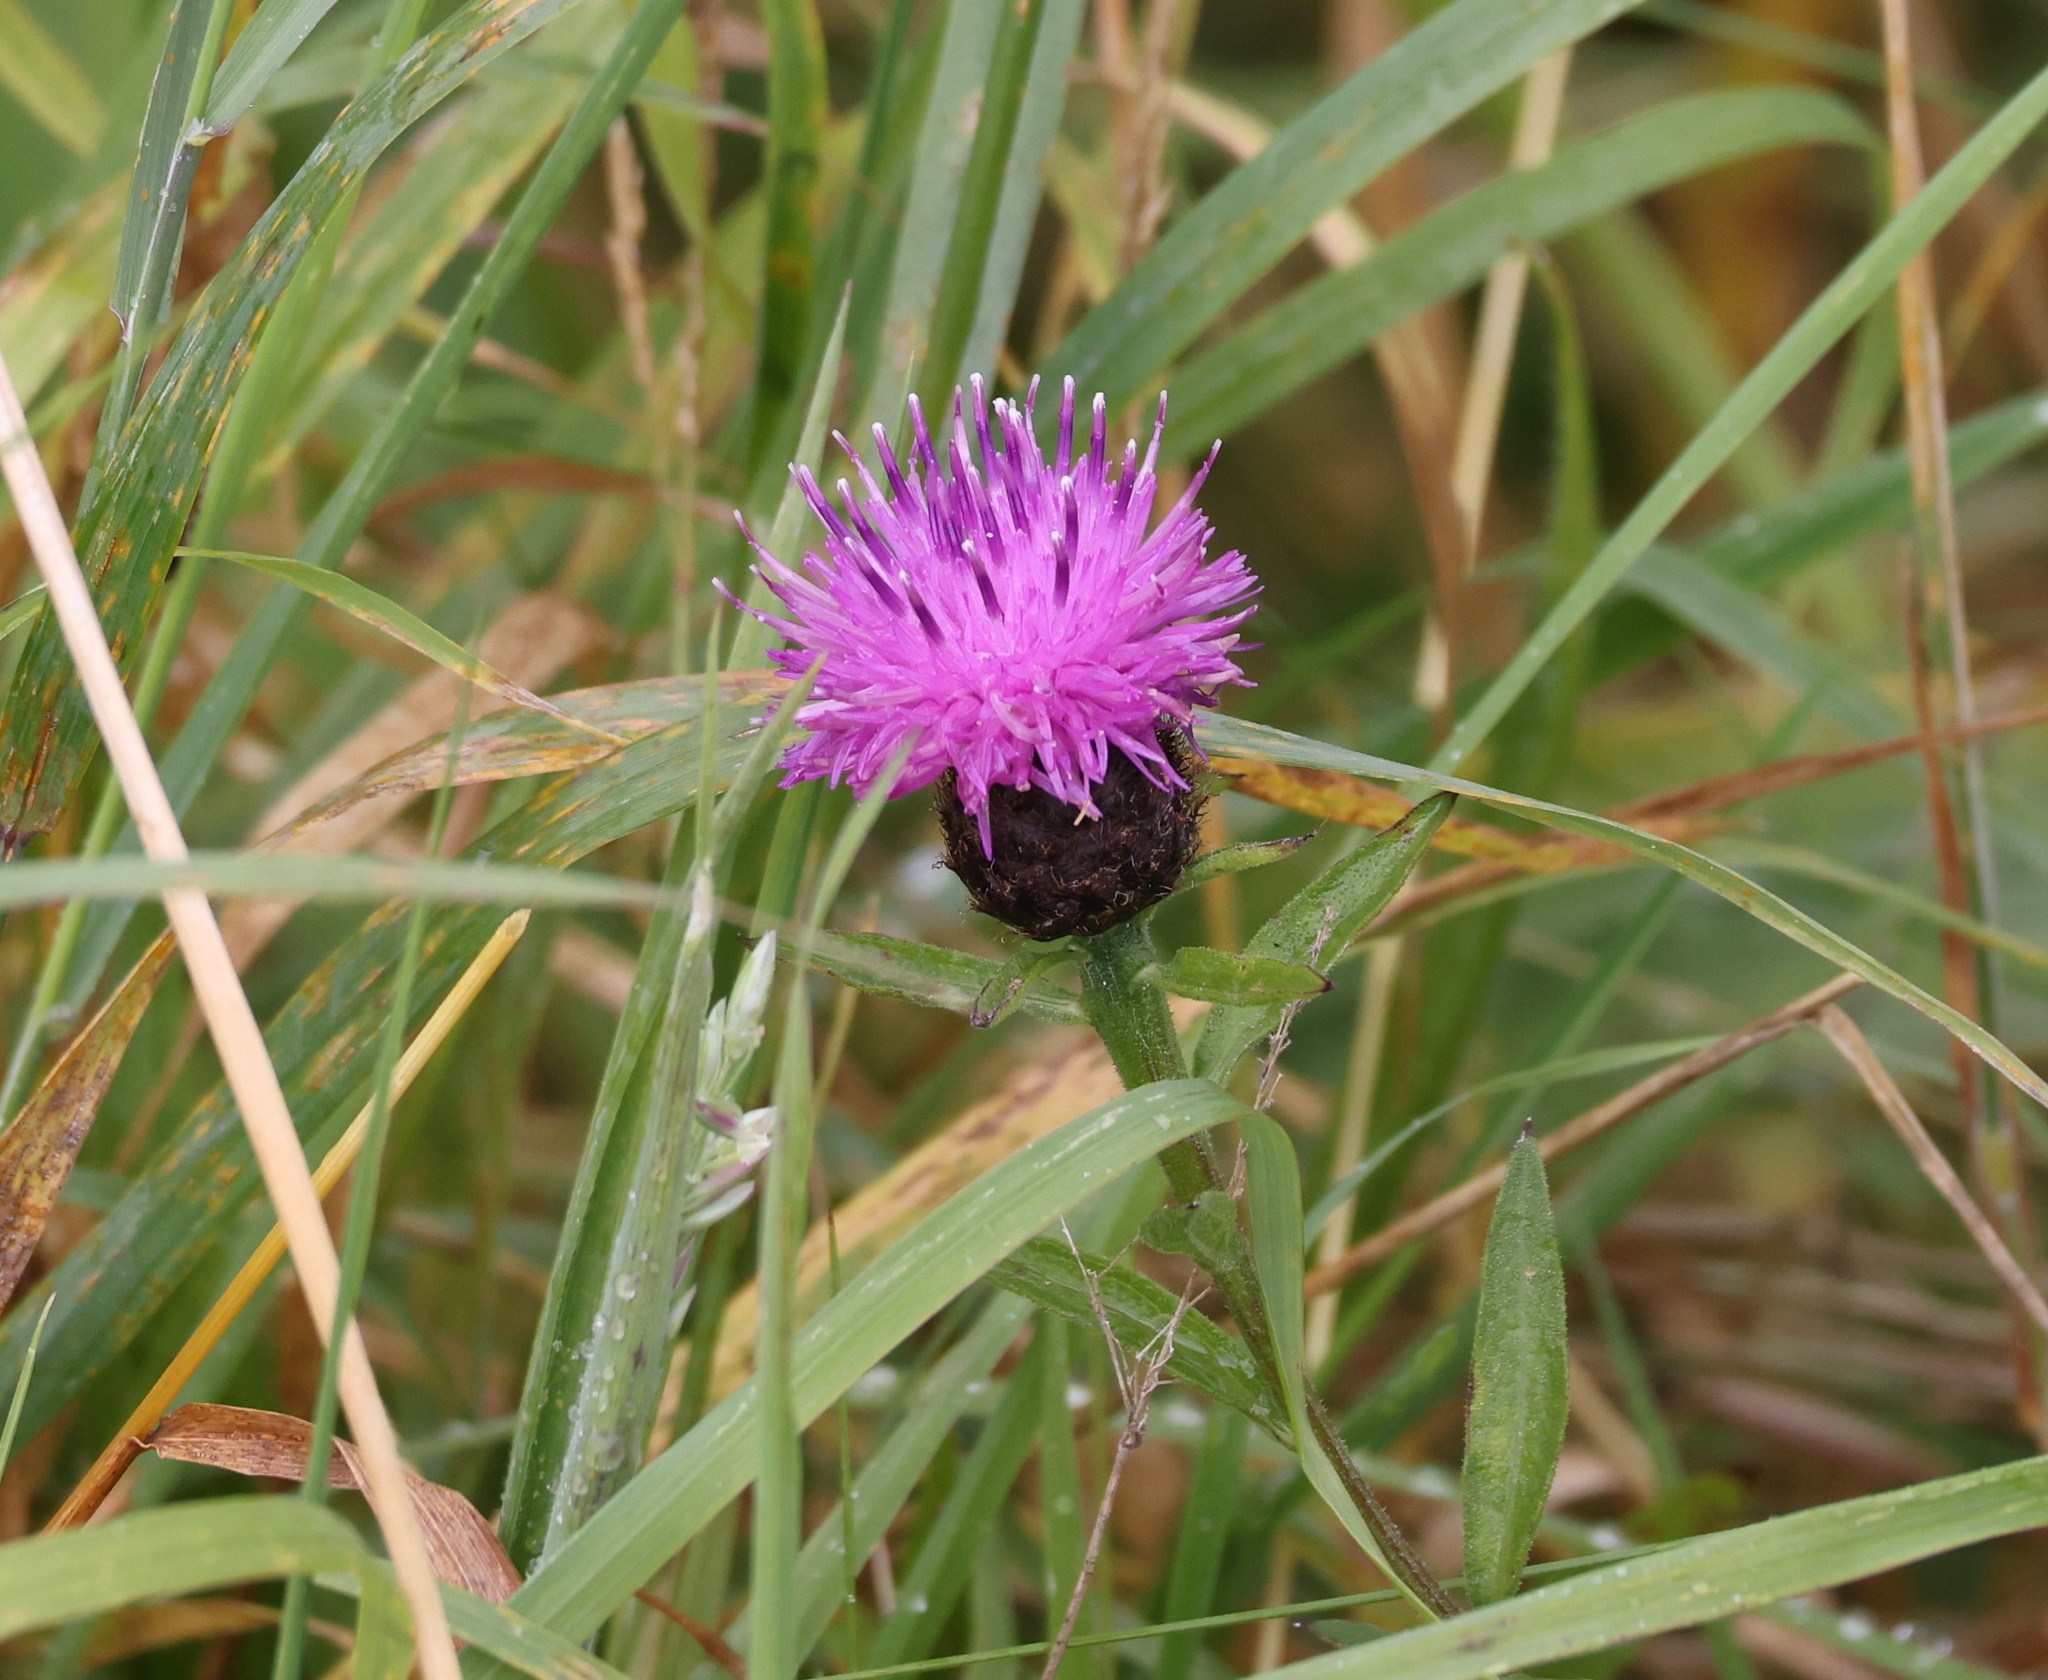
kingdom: Plantae
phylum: Tracheophyta
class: Magnoliopsida
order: Asterales
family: Asteraceae
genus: Centaurea
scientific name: Centaurea nigra
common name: Lesser knapweed
